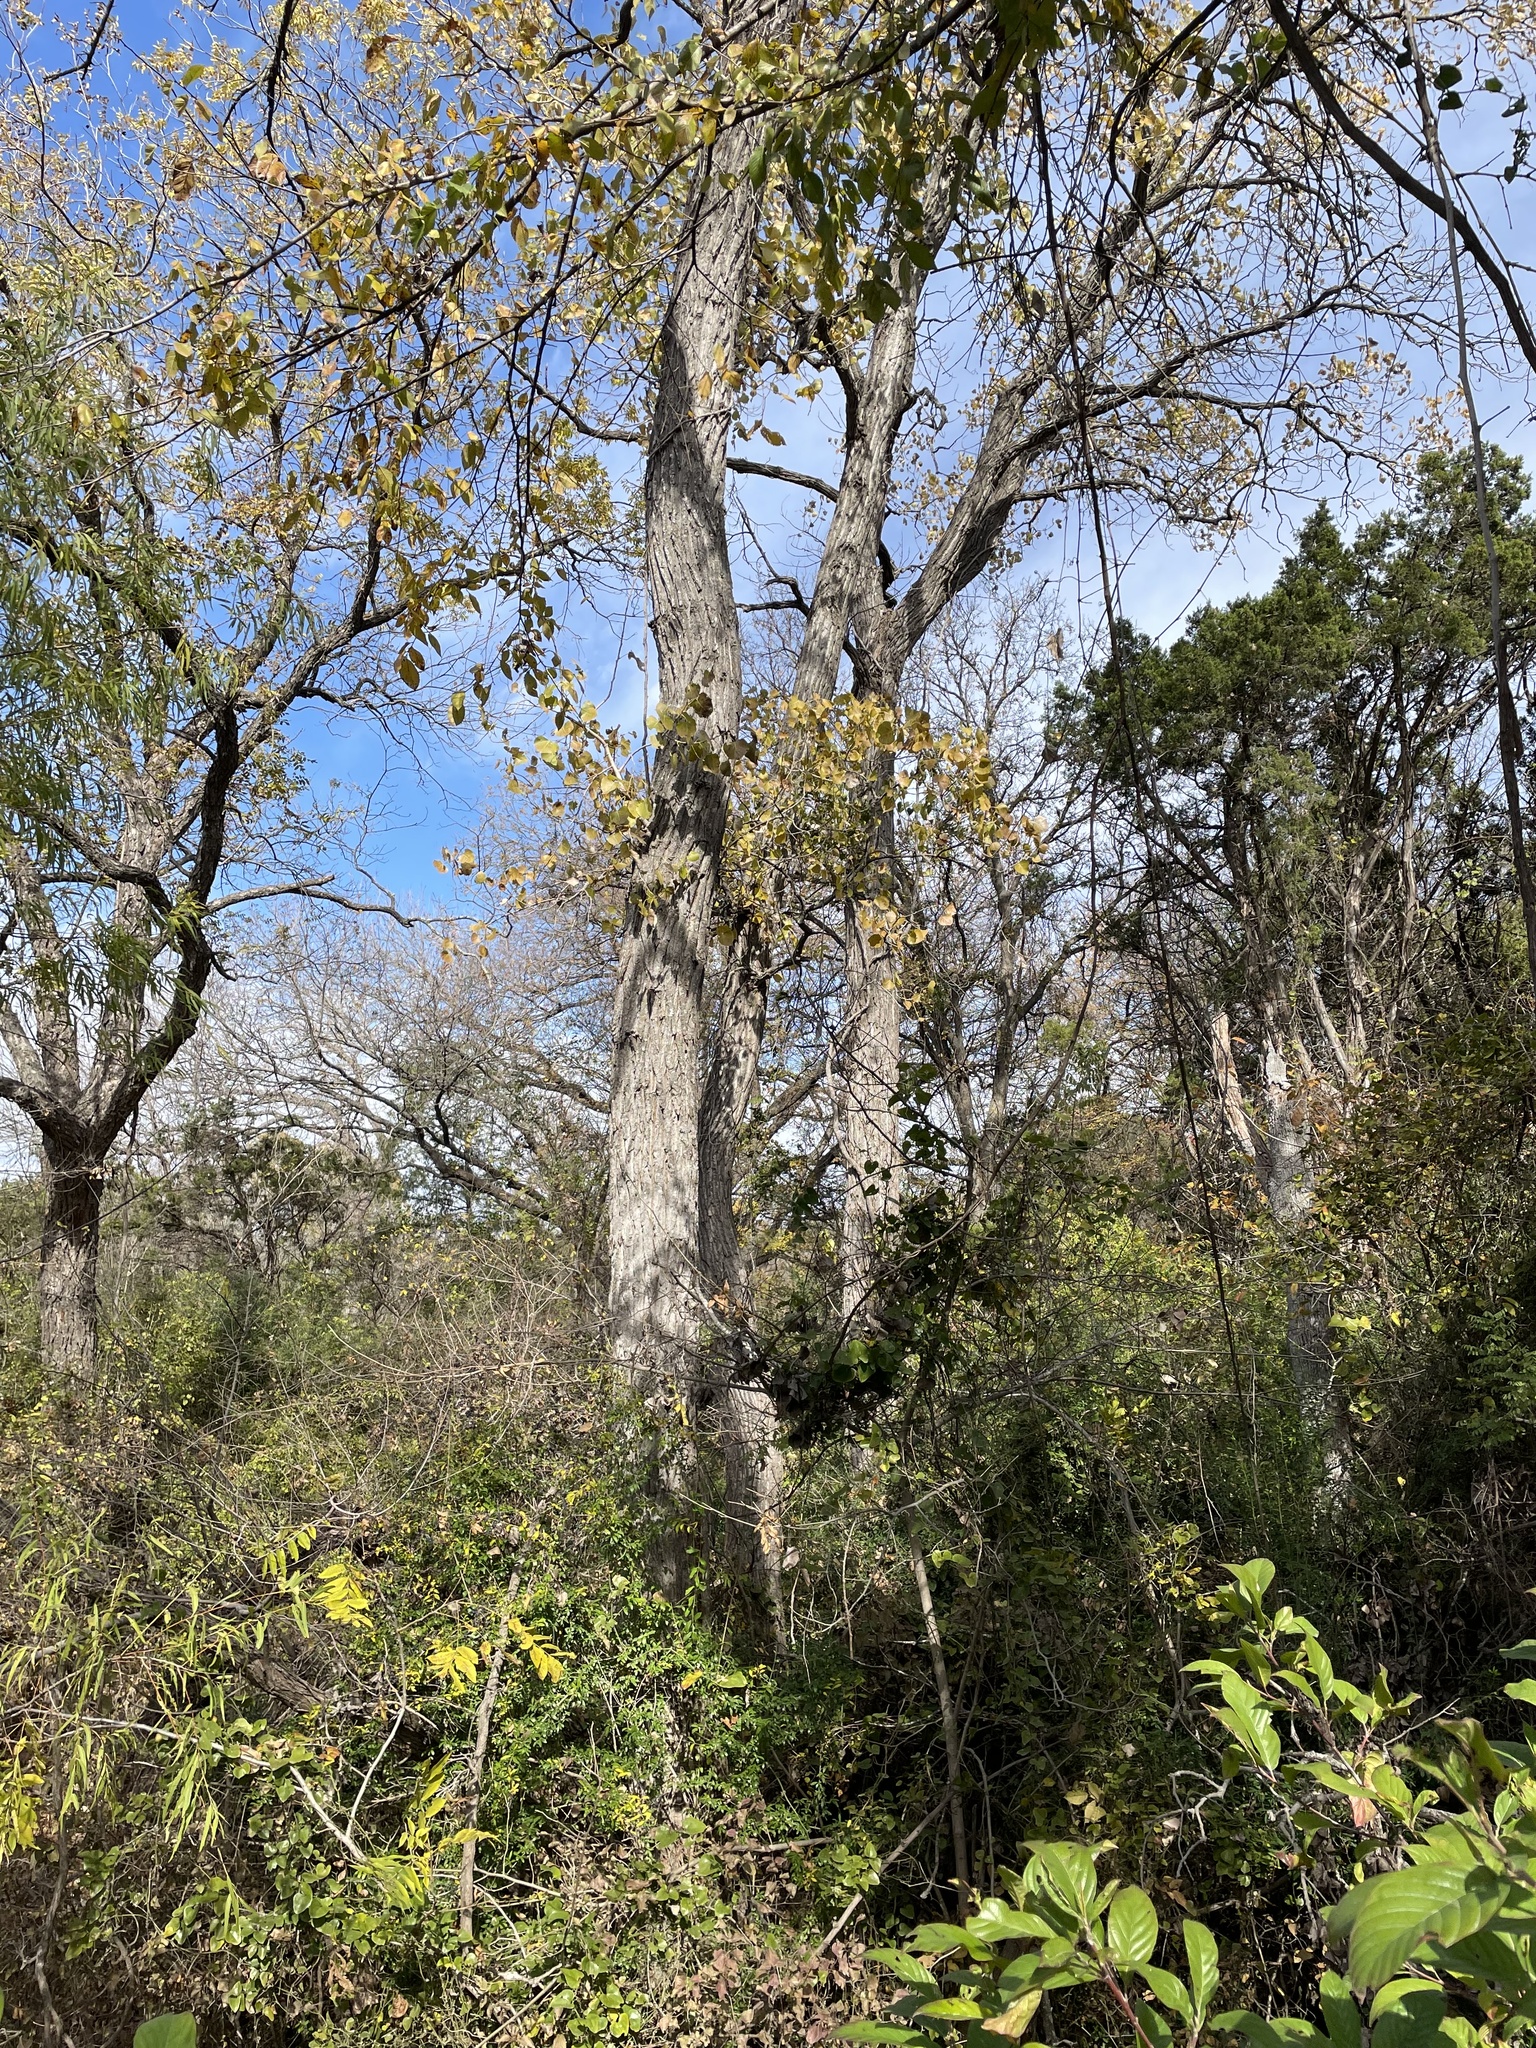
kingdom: Plantae
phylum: Tracheophyta
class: Magnoliopsida
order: Malpighiales
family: Salicaceae
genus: Populus
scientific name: Populus deltoides
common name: Eastern cottonwood
